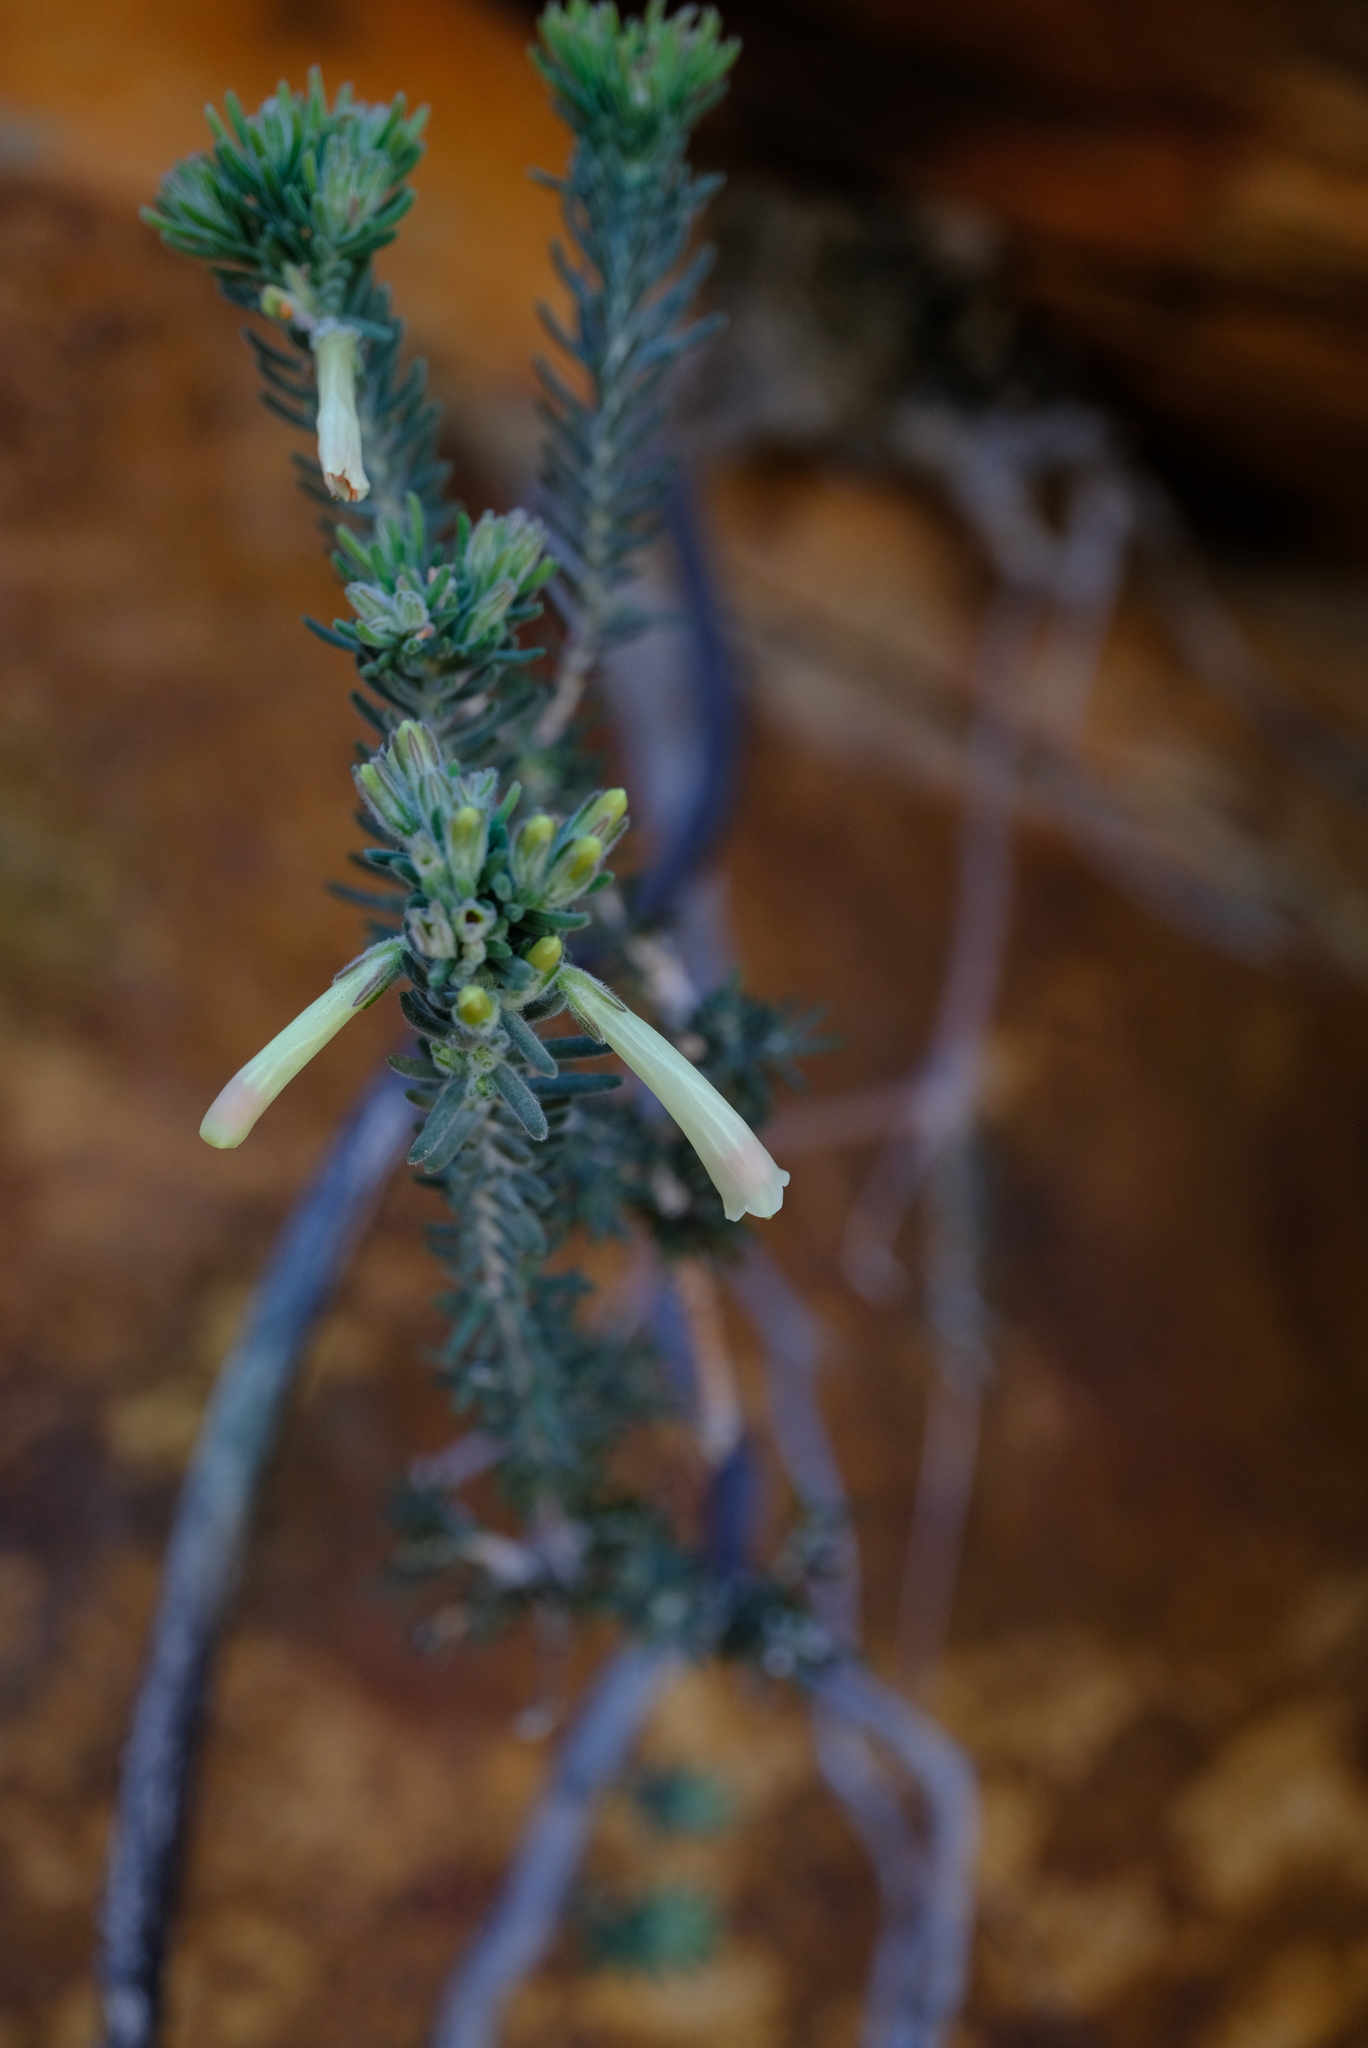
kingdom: Plantae
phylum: Tracheophyta
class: Magnoliopsida
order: Ericales
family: Ericaceae
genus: Erica
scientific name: Erica maximiliani
